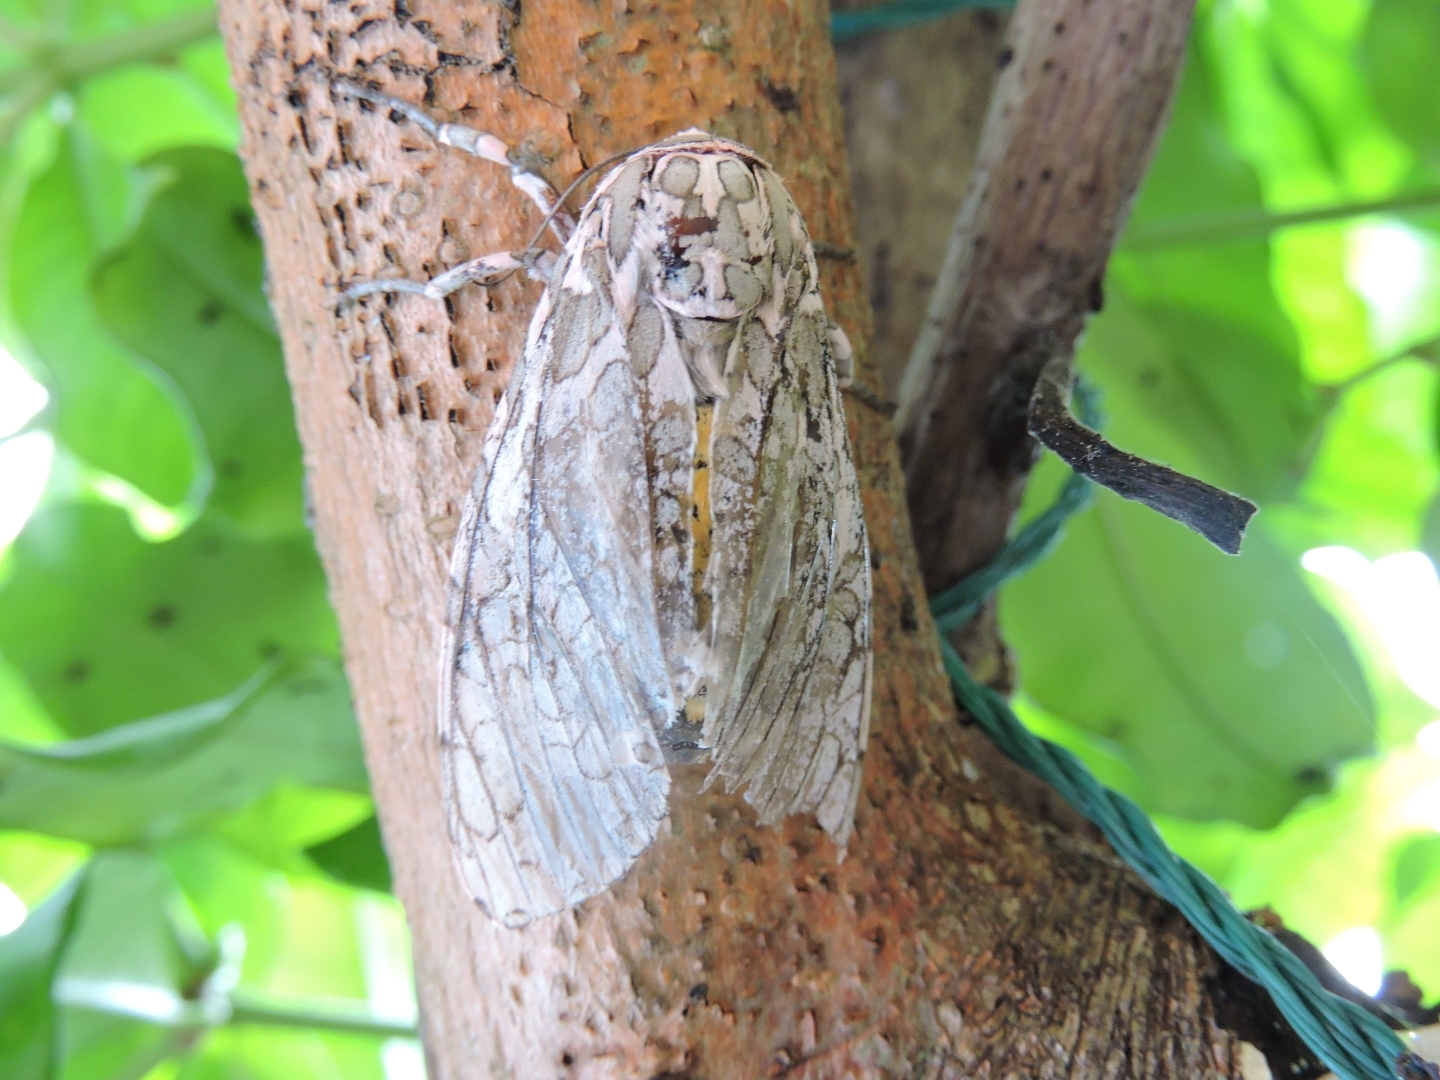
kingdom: Animalia
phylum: Arthropoda
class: Insecta
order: Lepidoptera
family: Erebidae
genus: Hypercompe
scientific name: Hypercompe kinkelini
